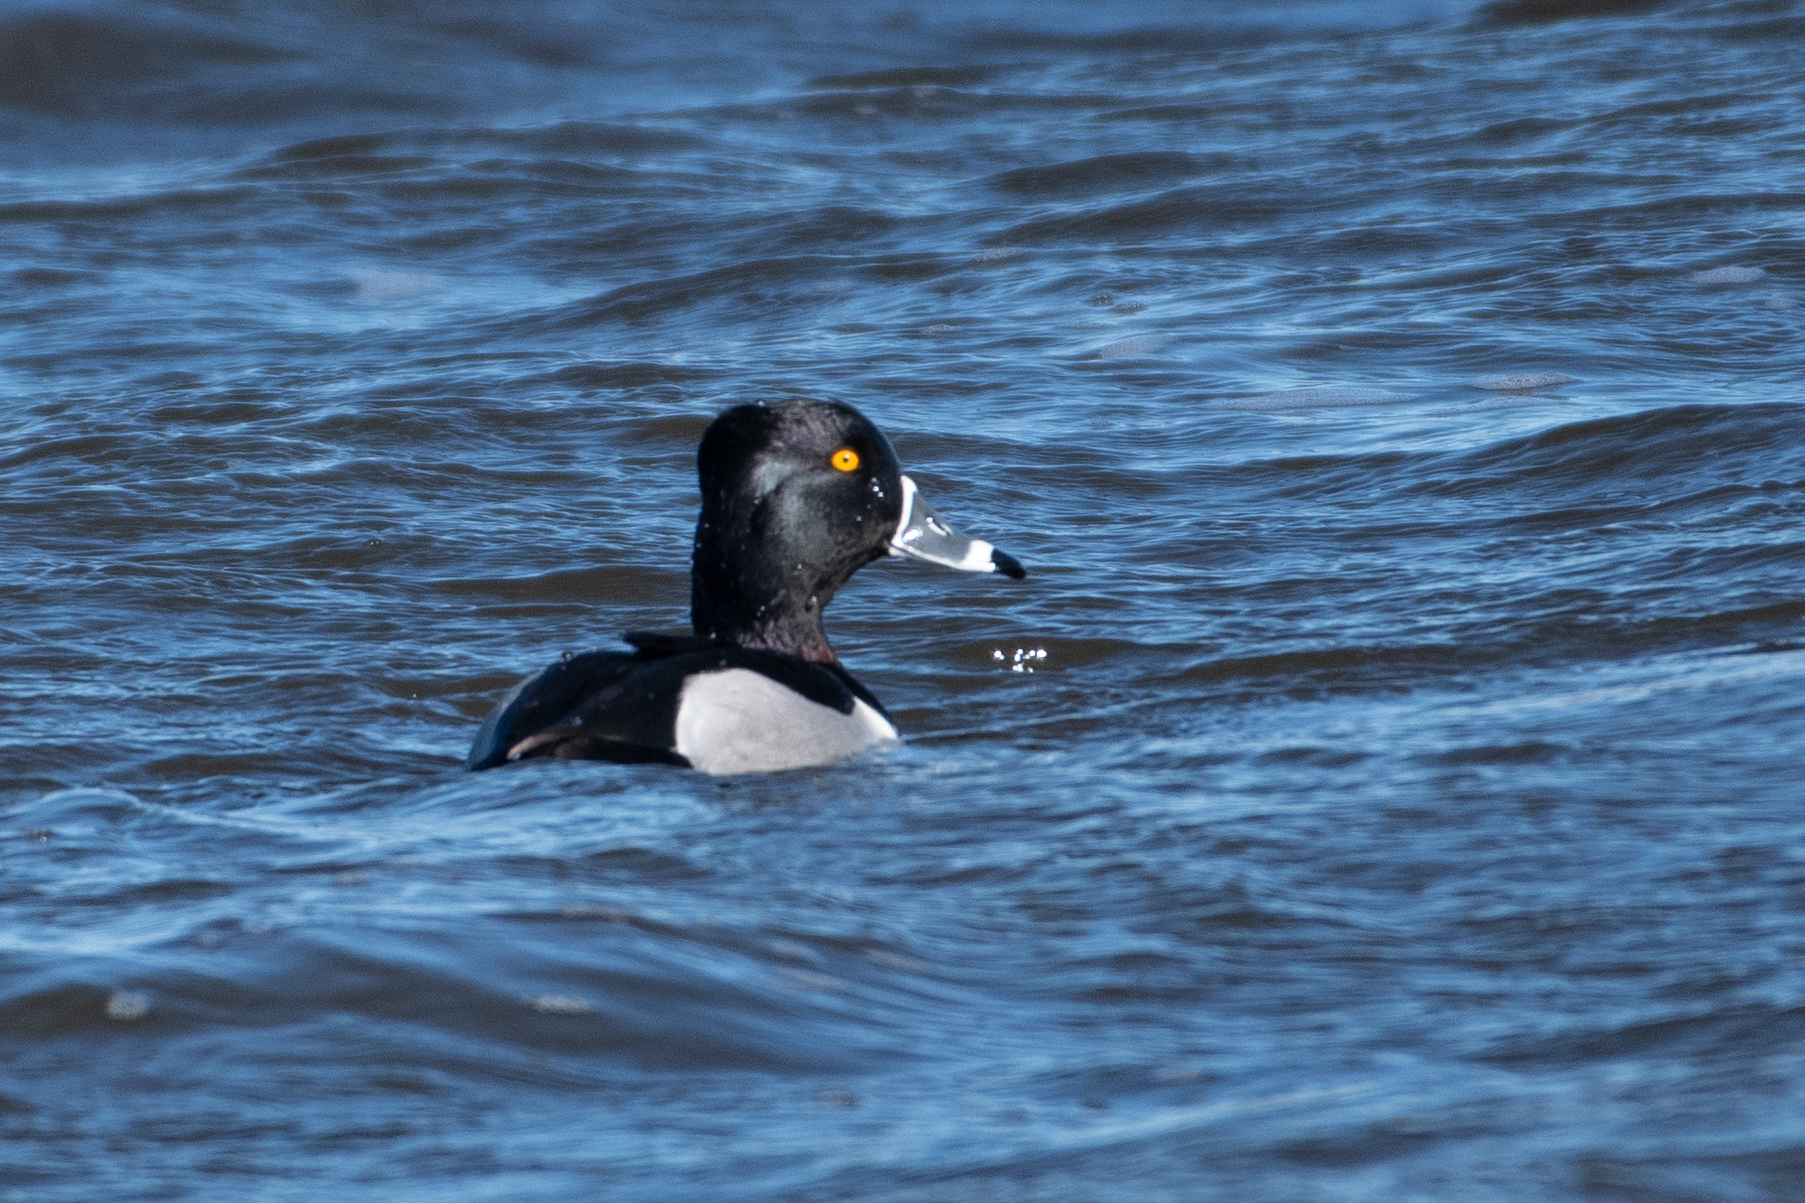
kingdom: Animalia
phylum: Chordata
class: Aves
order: Anseriformes
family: Anatidae
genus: Aythya
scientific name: Aythya collaris
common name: Ring-necked duck
